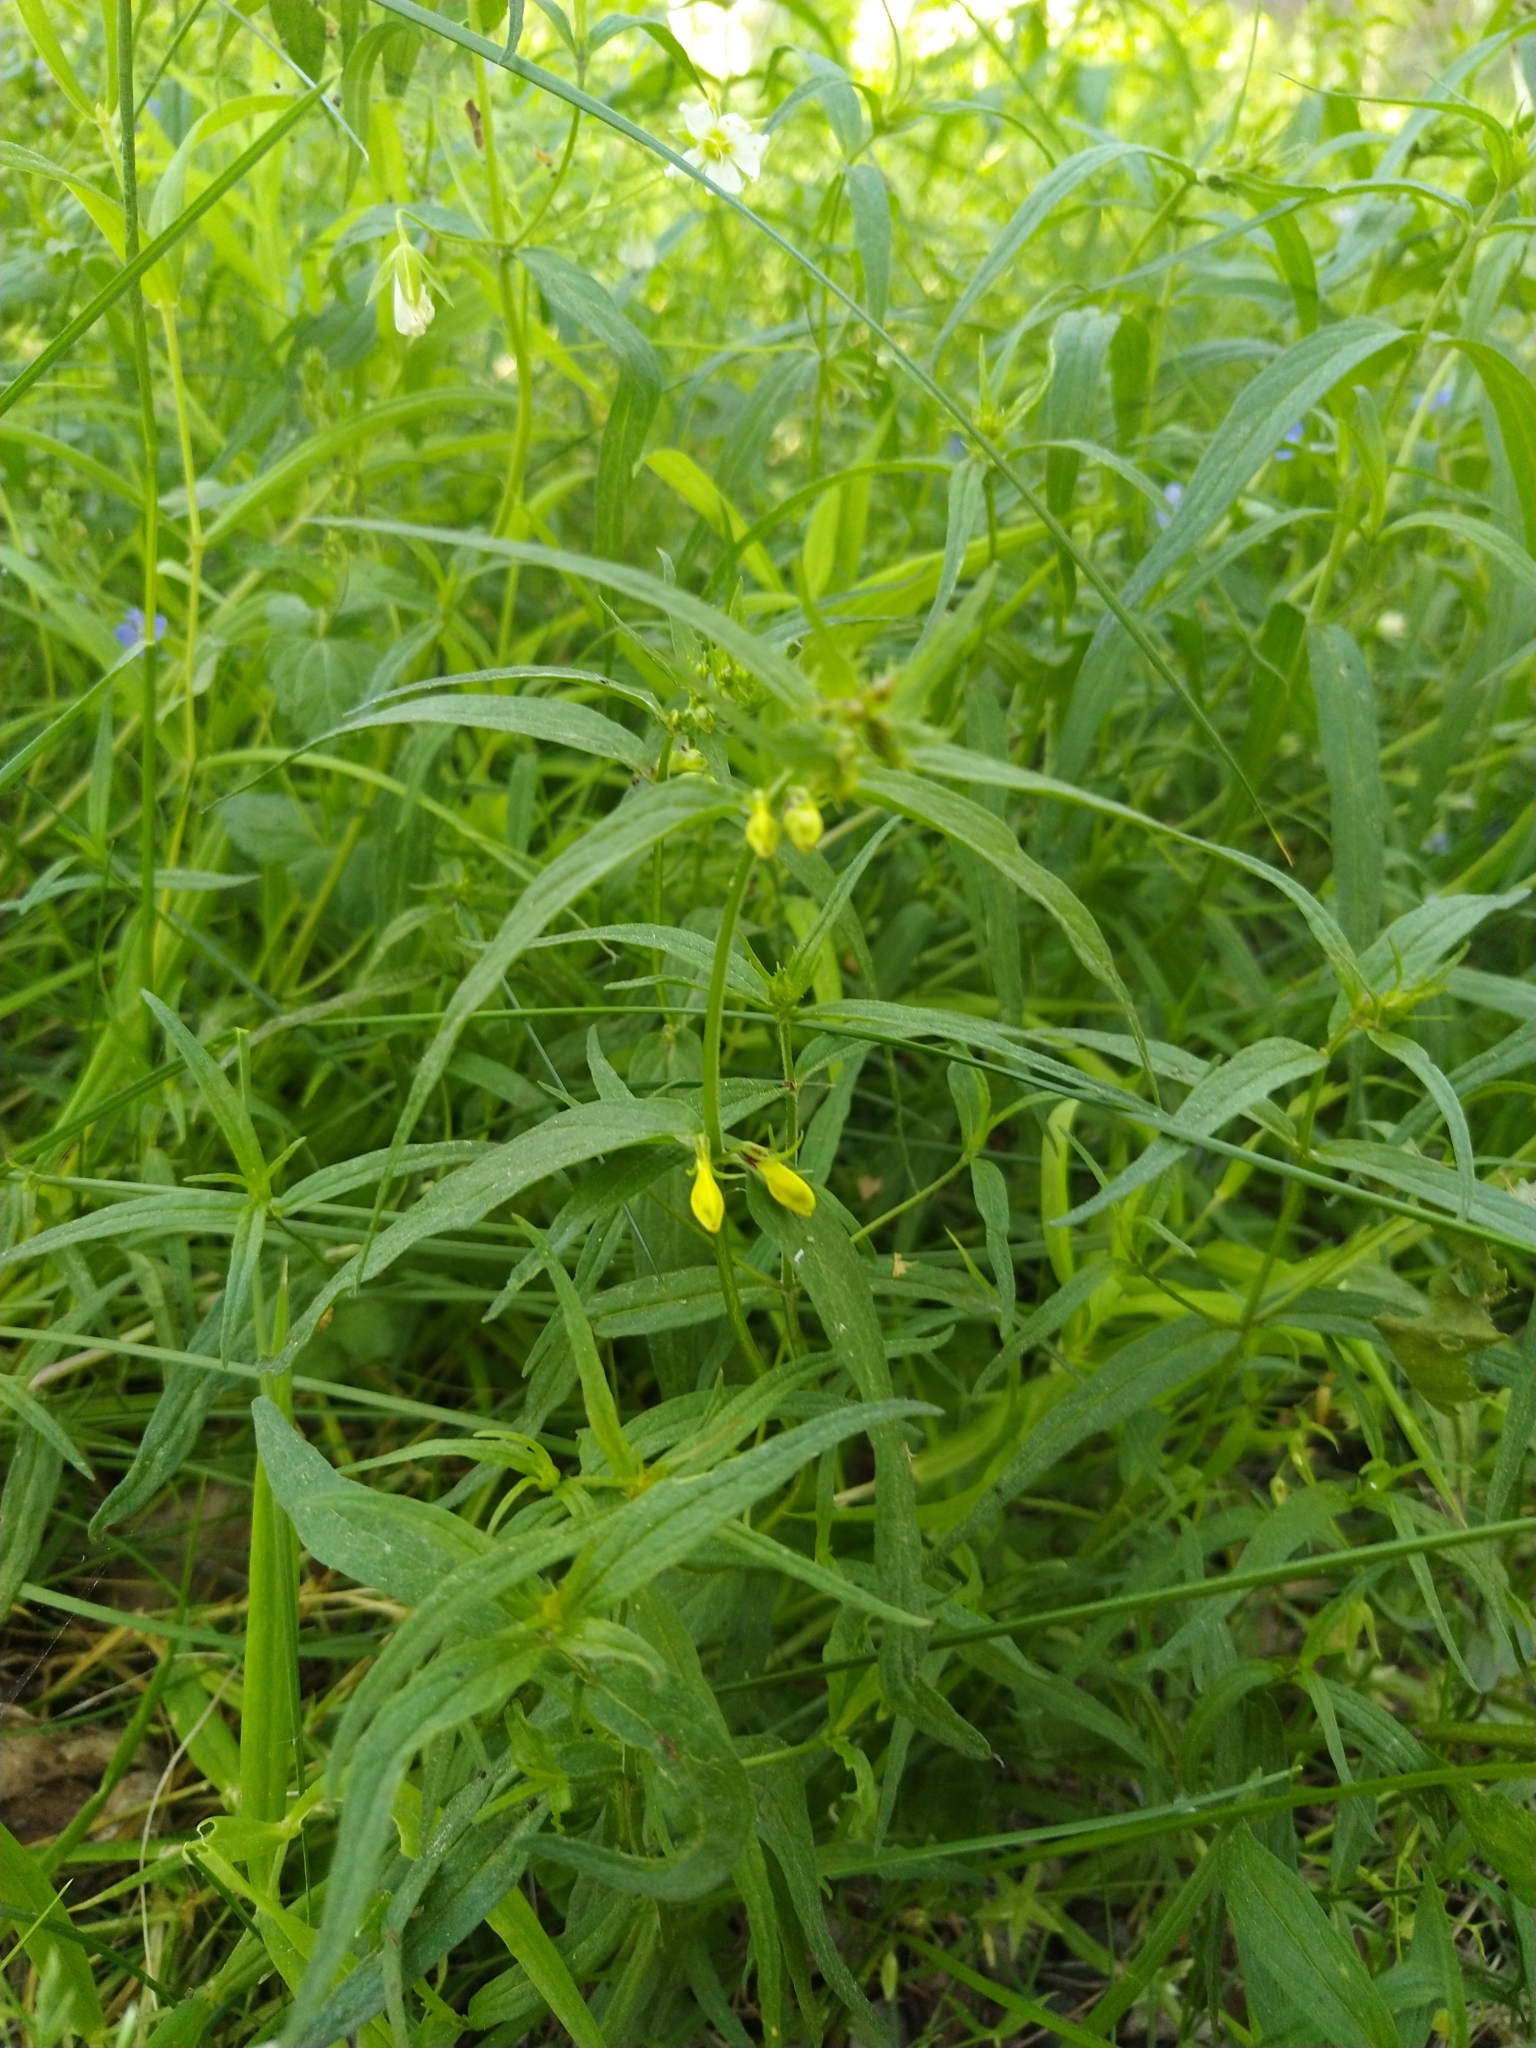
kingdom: Plantae
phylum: Tracheophyta
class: Magnoliopsida
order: Lamiales
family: Orobanchaceae
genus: Melampyrum
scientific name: Melampyrum sylvaticum
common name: Small cow-wheat
